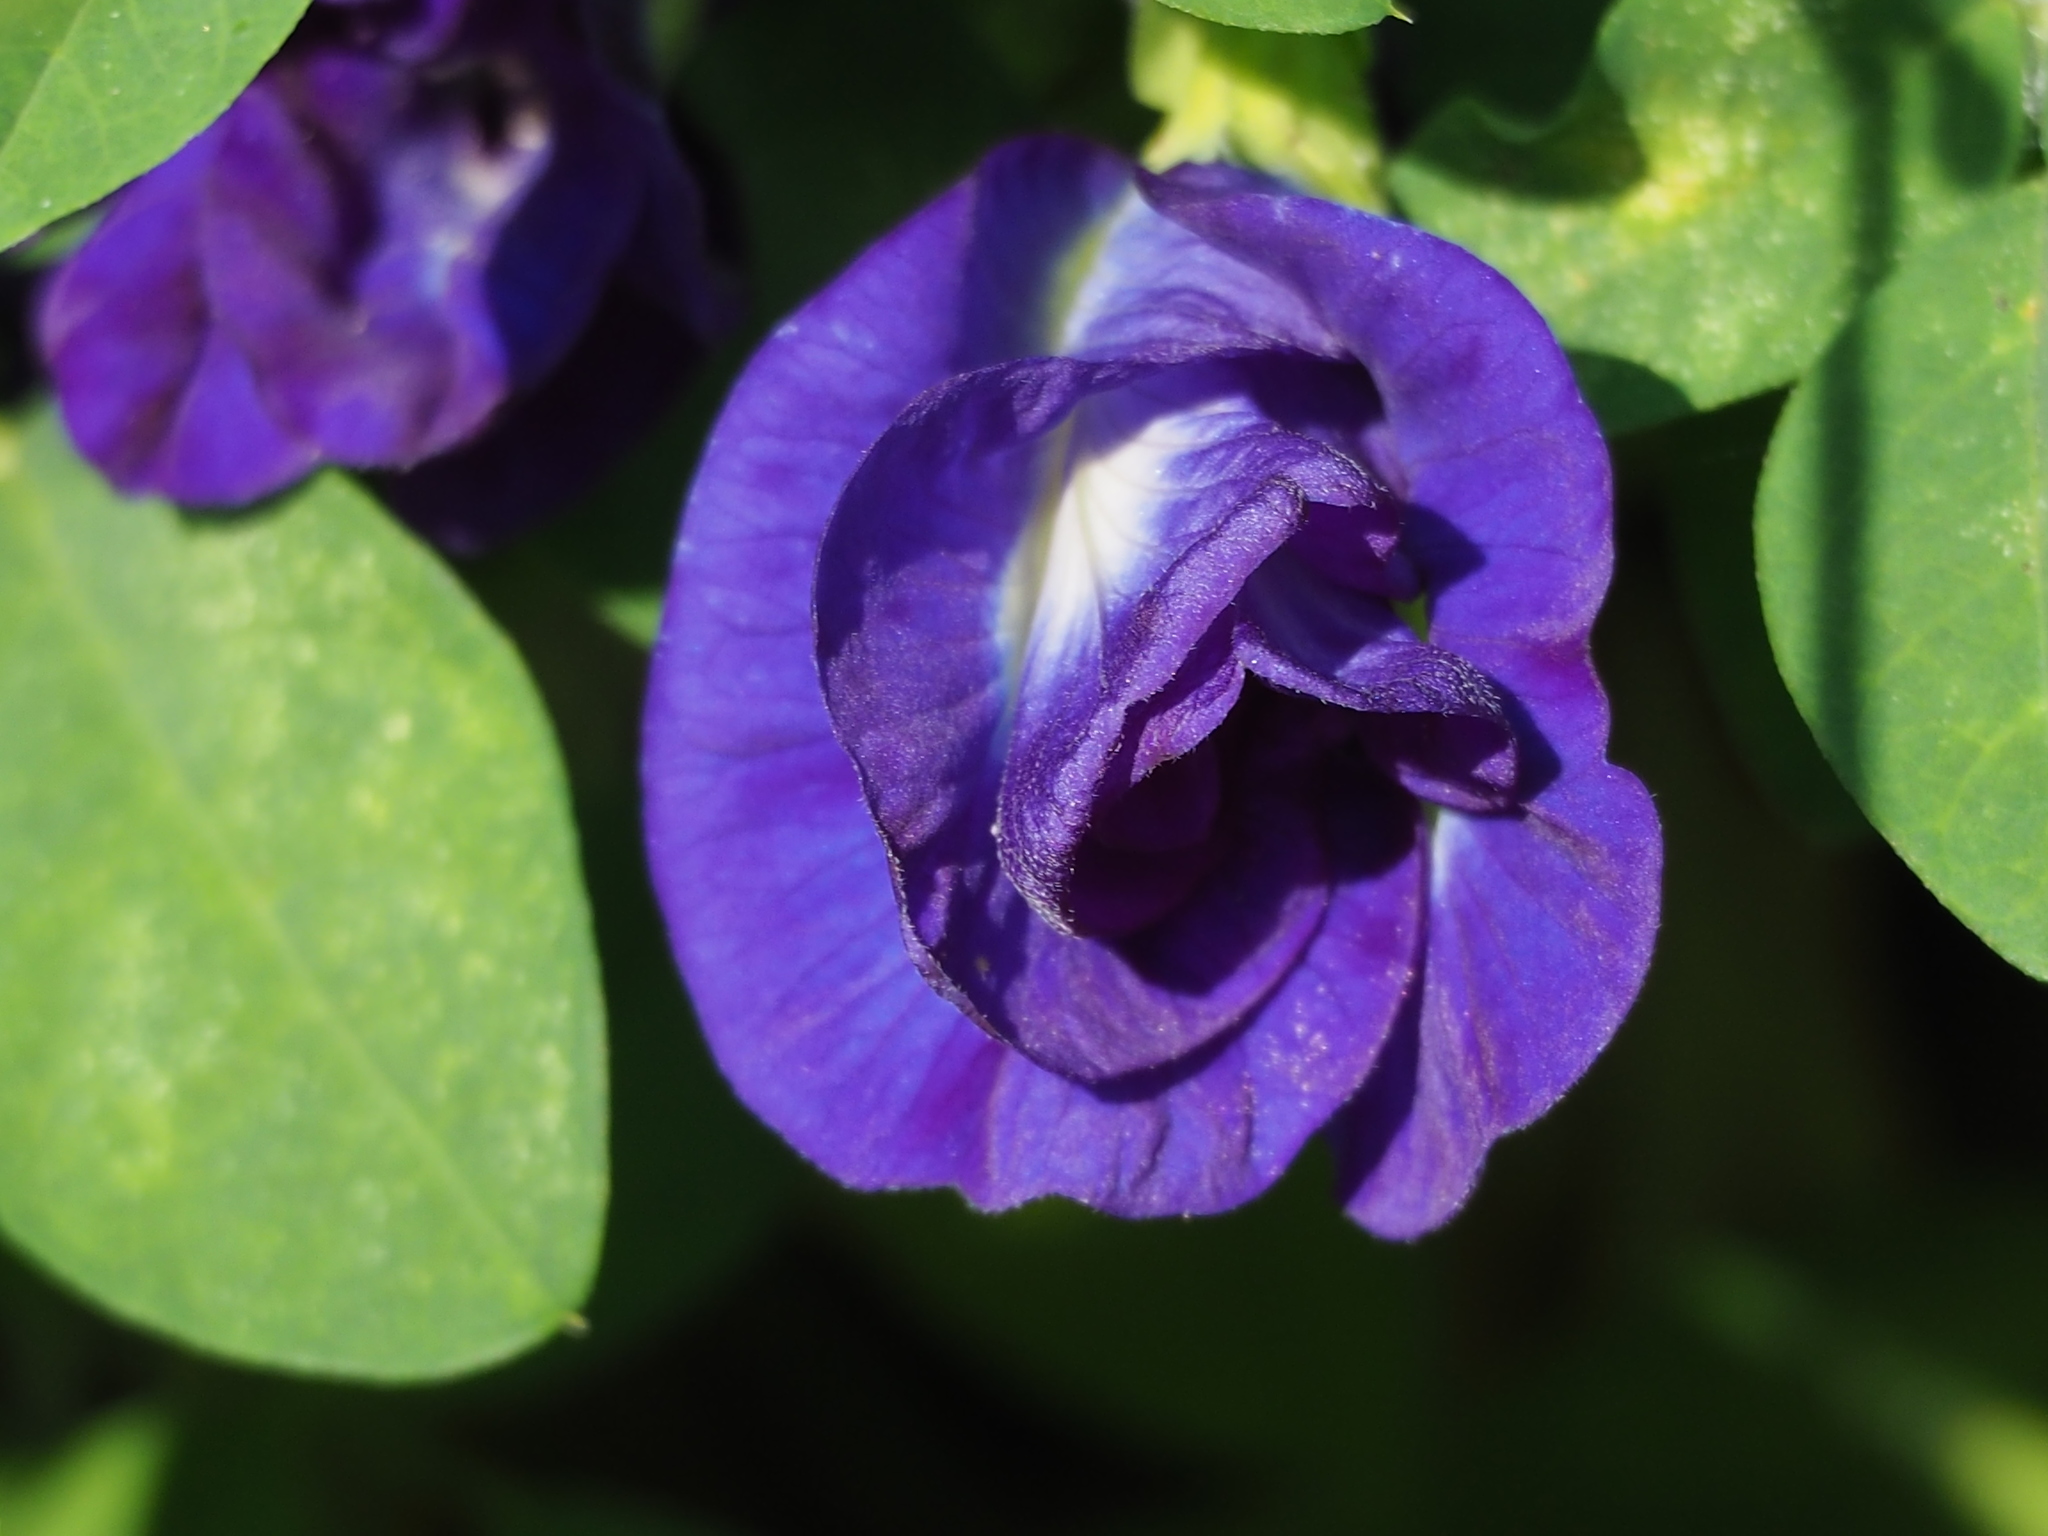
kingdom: Plantae
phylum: Tracheophyta
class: Magnoliopsida
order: Fabales
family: Fabaceae
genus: Clitoria
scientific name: Clitoria ternatea
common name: Asian pigeonwings
